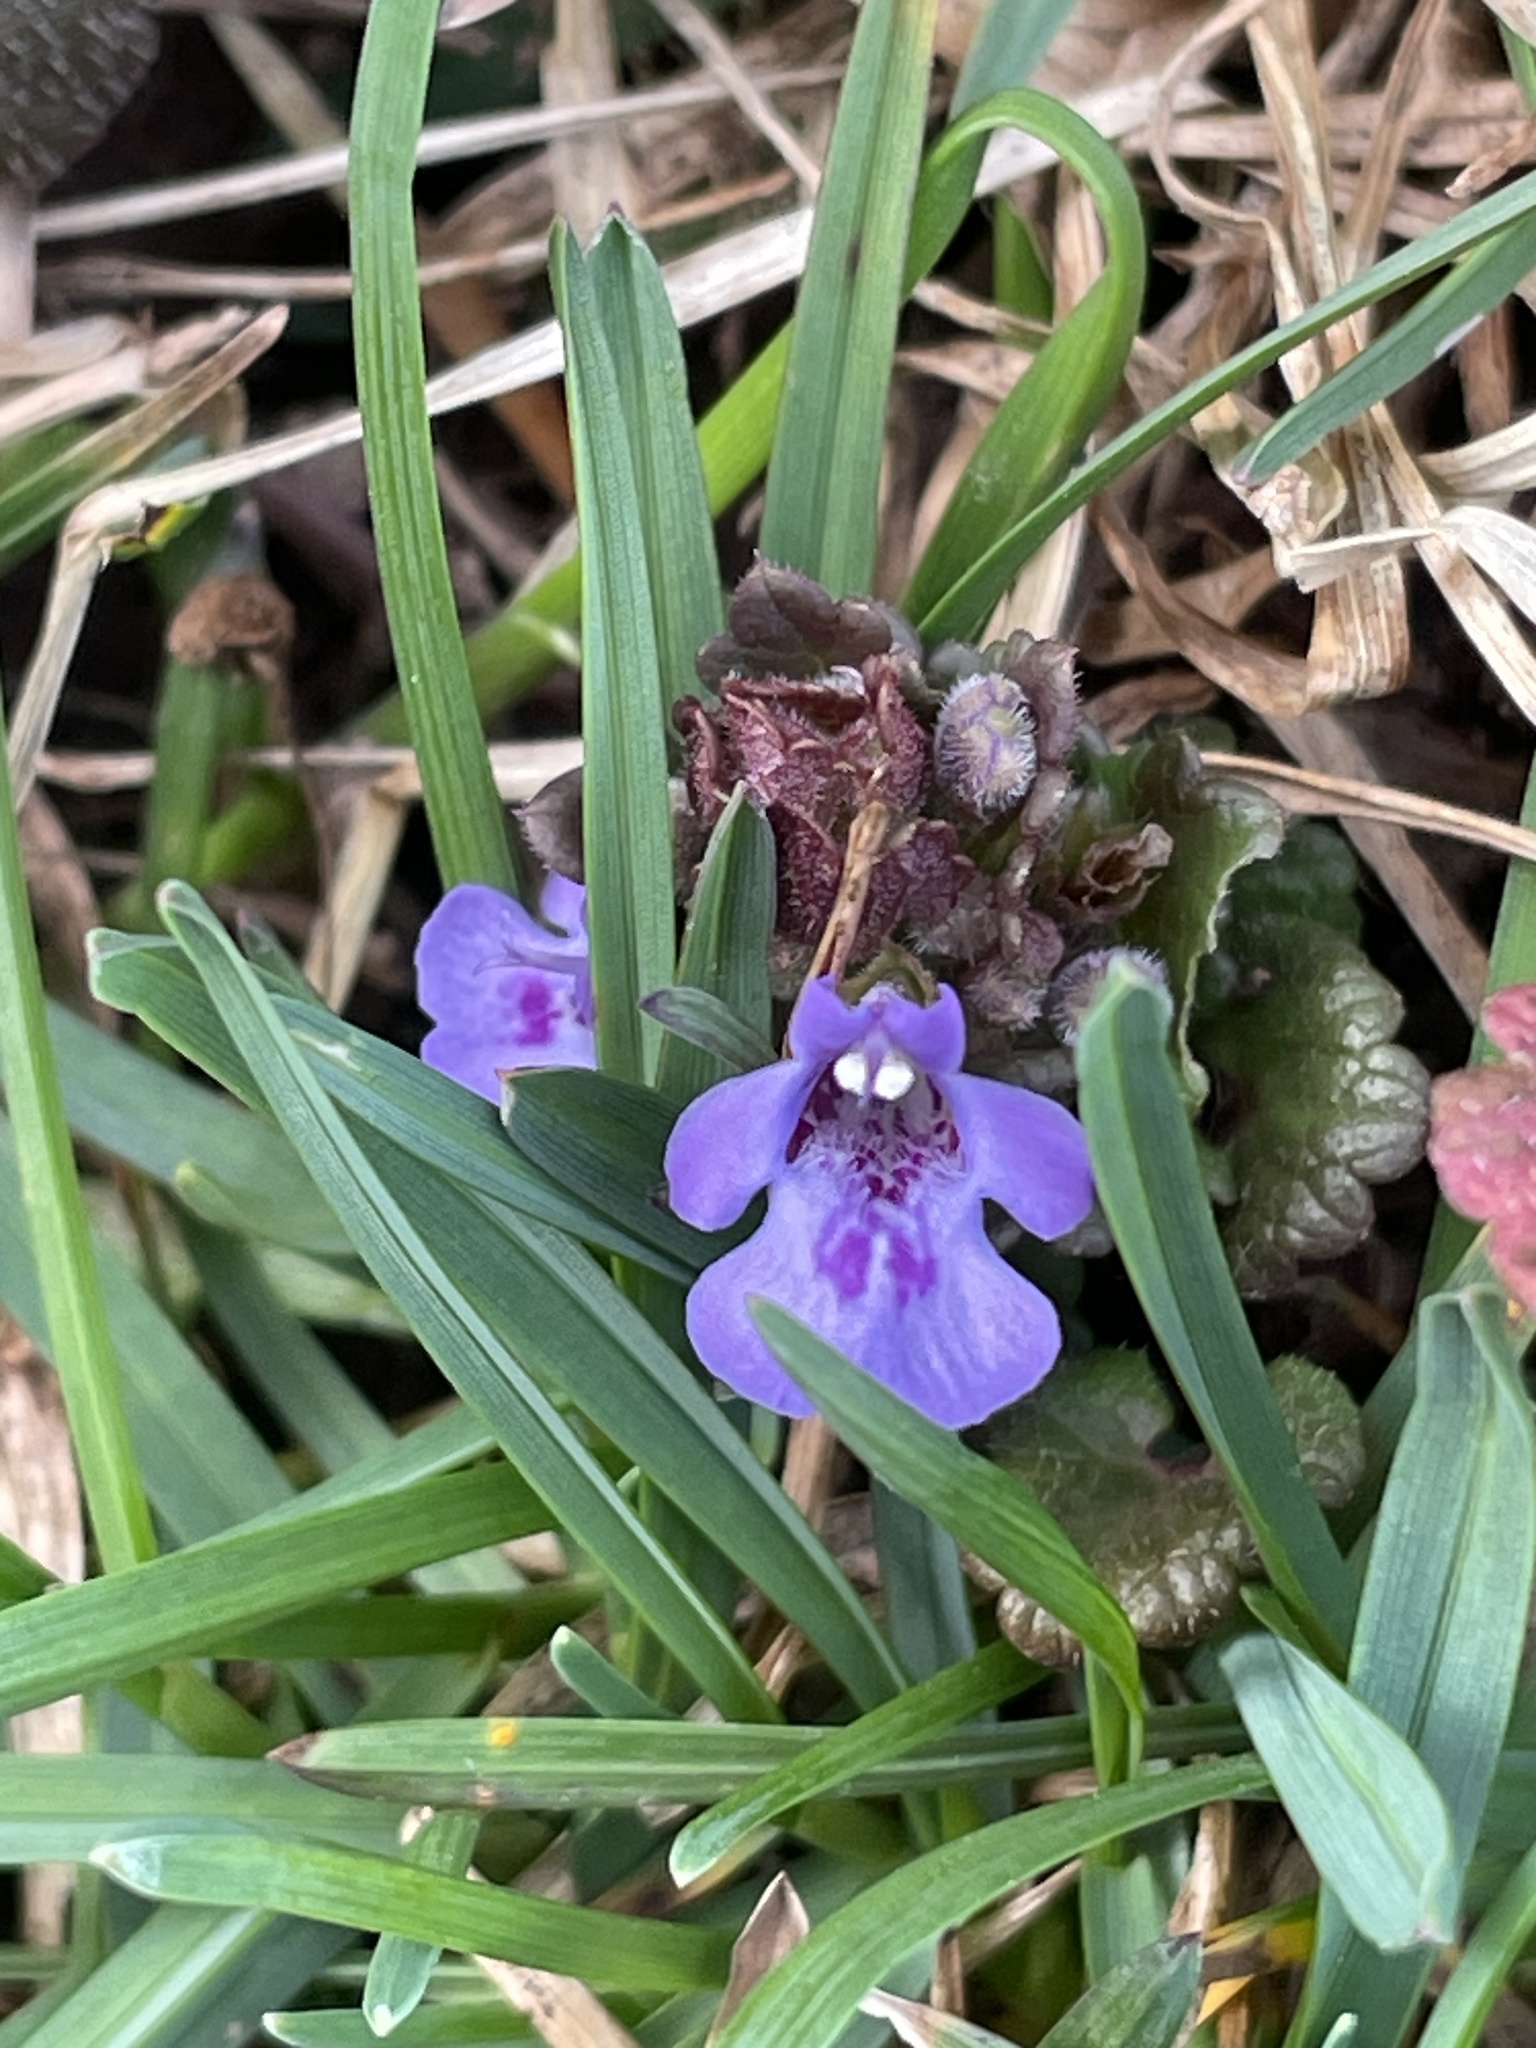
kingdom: Plantae
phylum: Tracheophyta
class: Magnoliopsida
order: Lamiales
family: Lamiaceae
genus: Glechoma
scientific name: Glechoma hederacea
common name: Ground ivy
